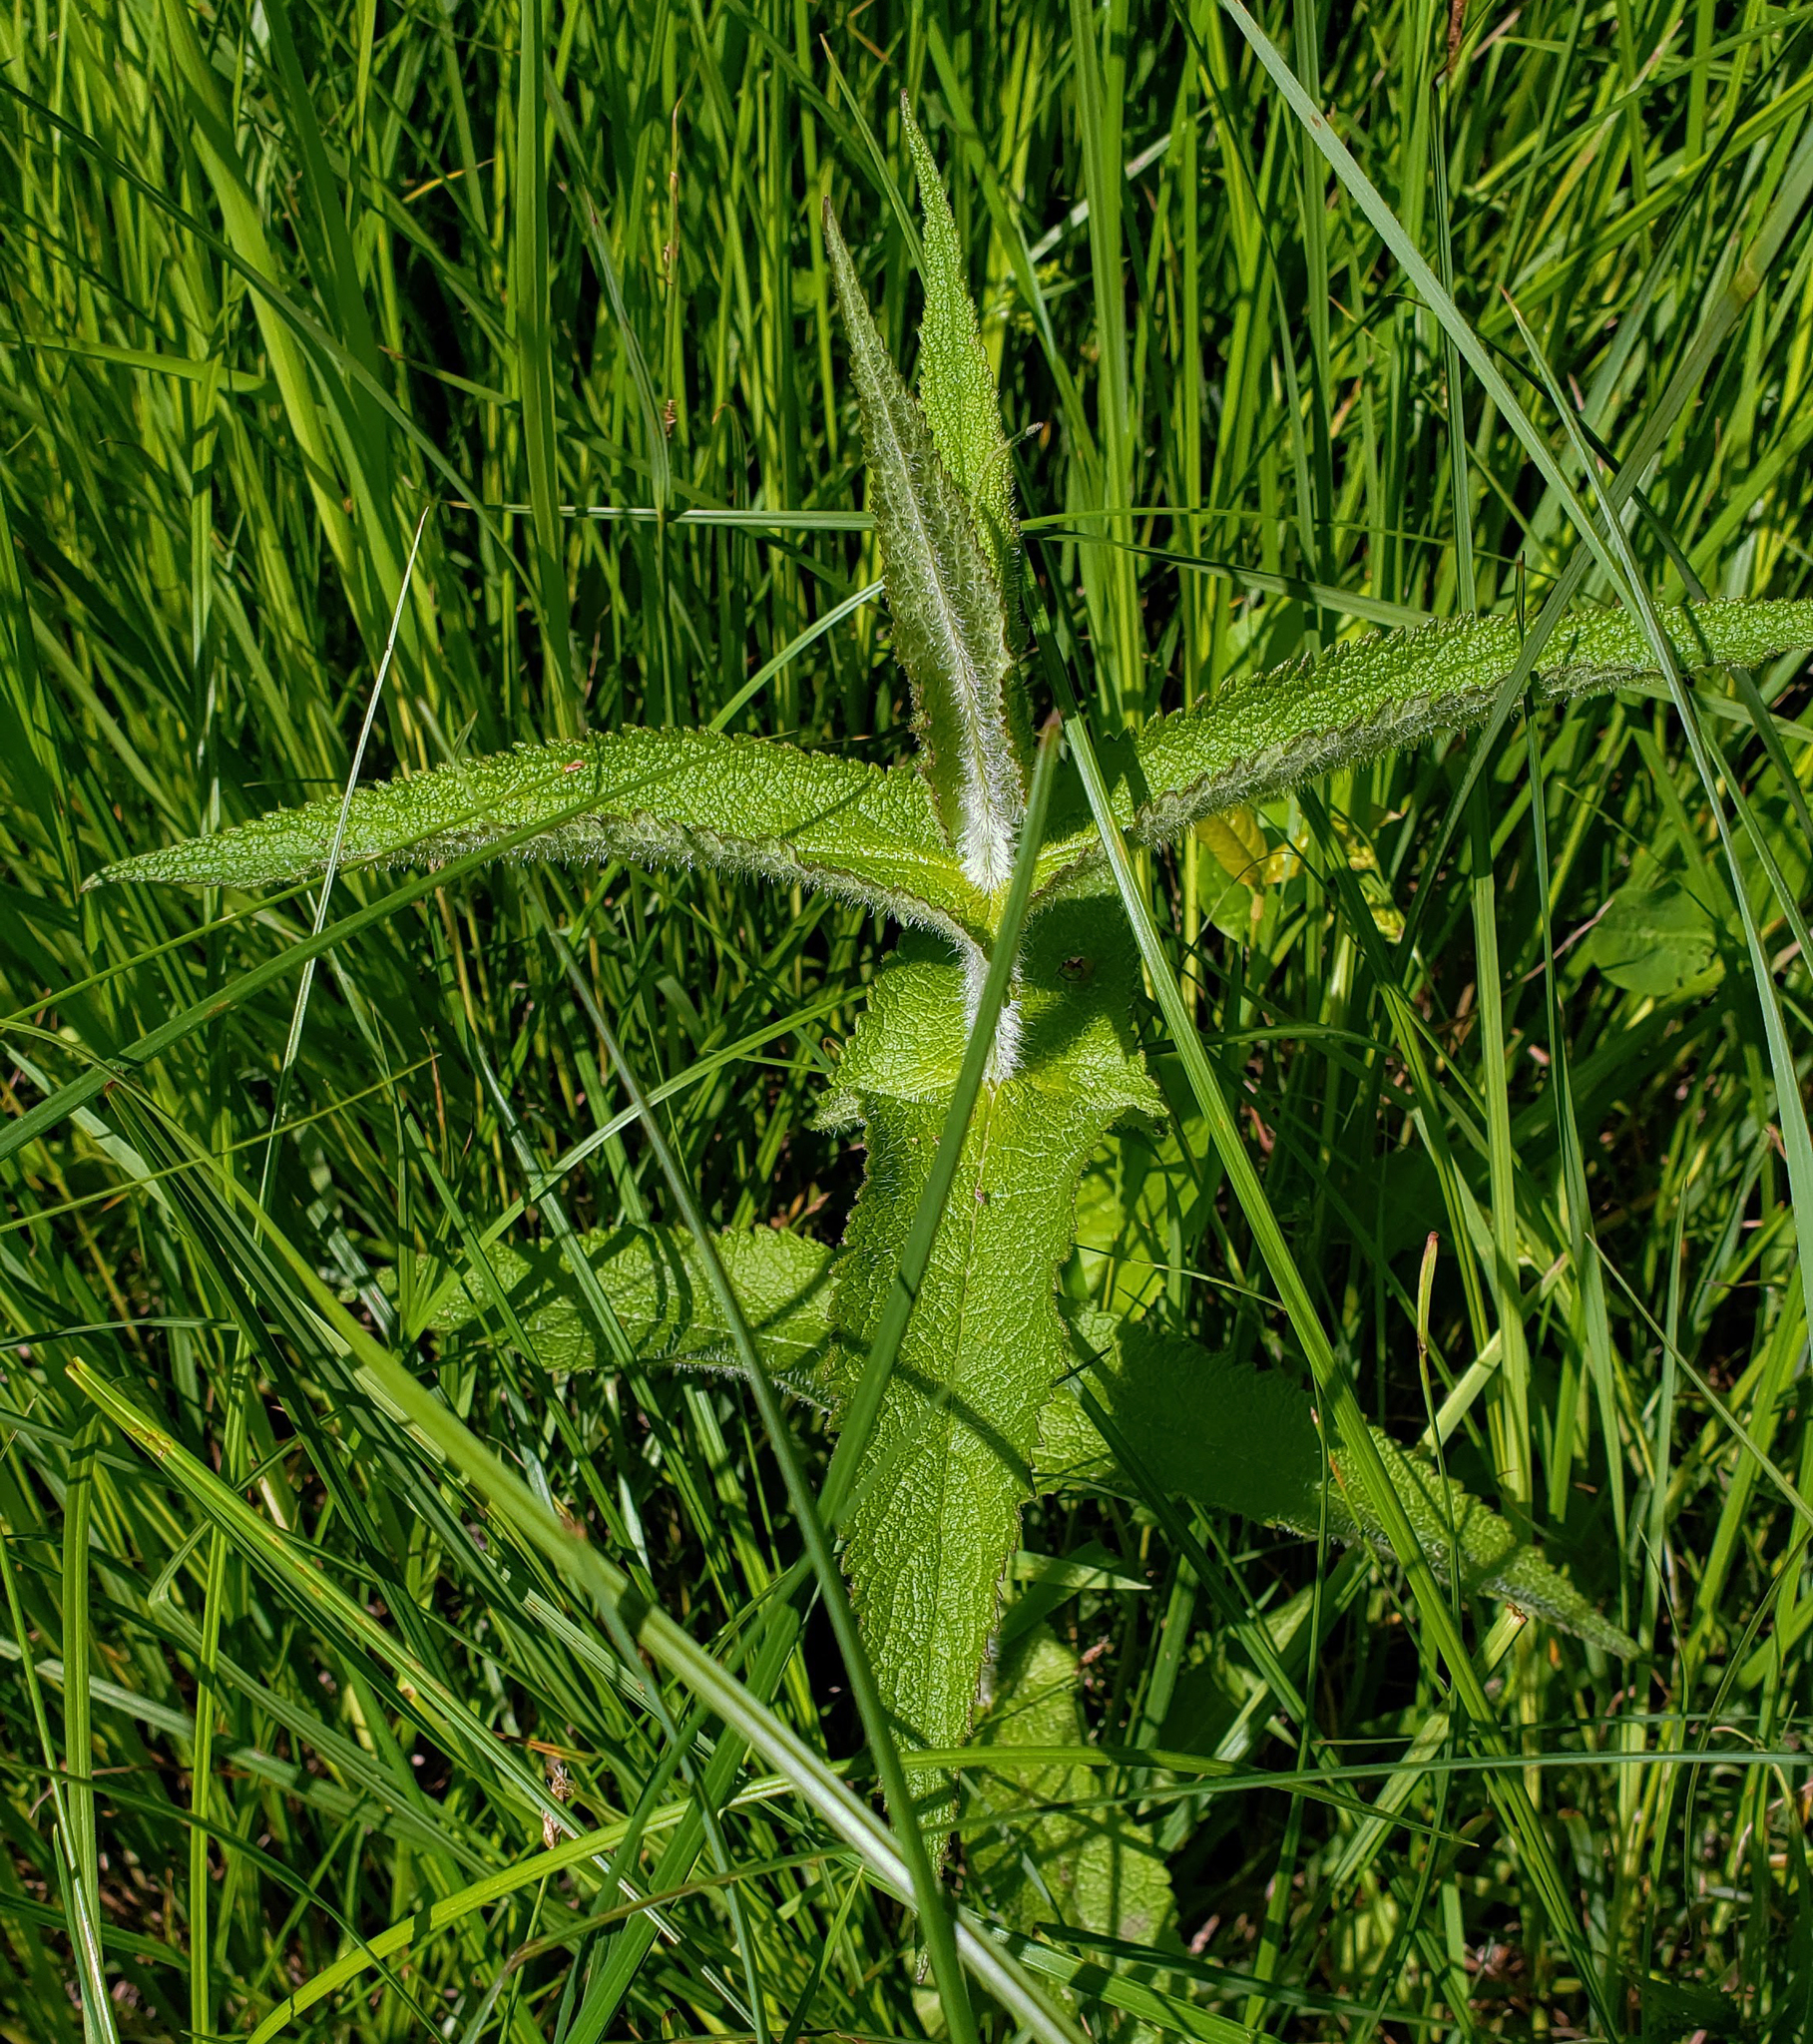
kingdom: Plantae
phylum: Tracheophyta
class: Magnoliopsida
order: Asterales
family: Asteraceae
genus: Eupatorium
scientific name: Eupatorium perfoliatum
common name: Boneset
